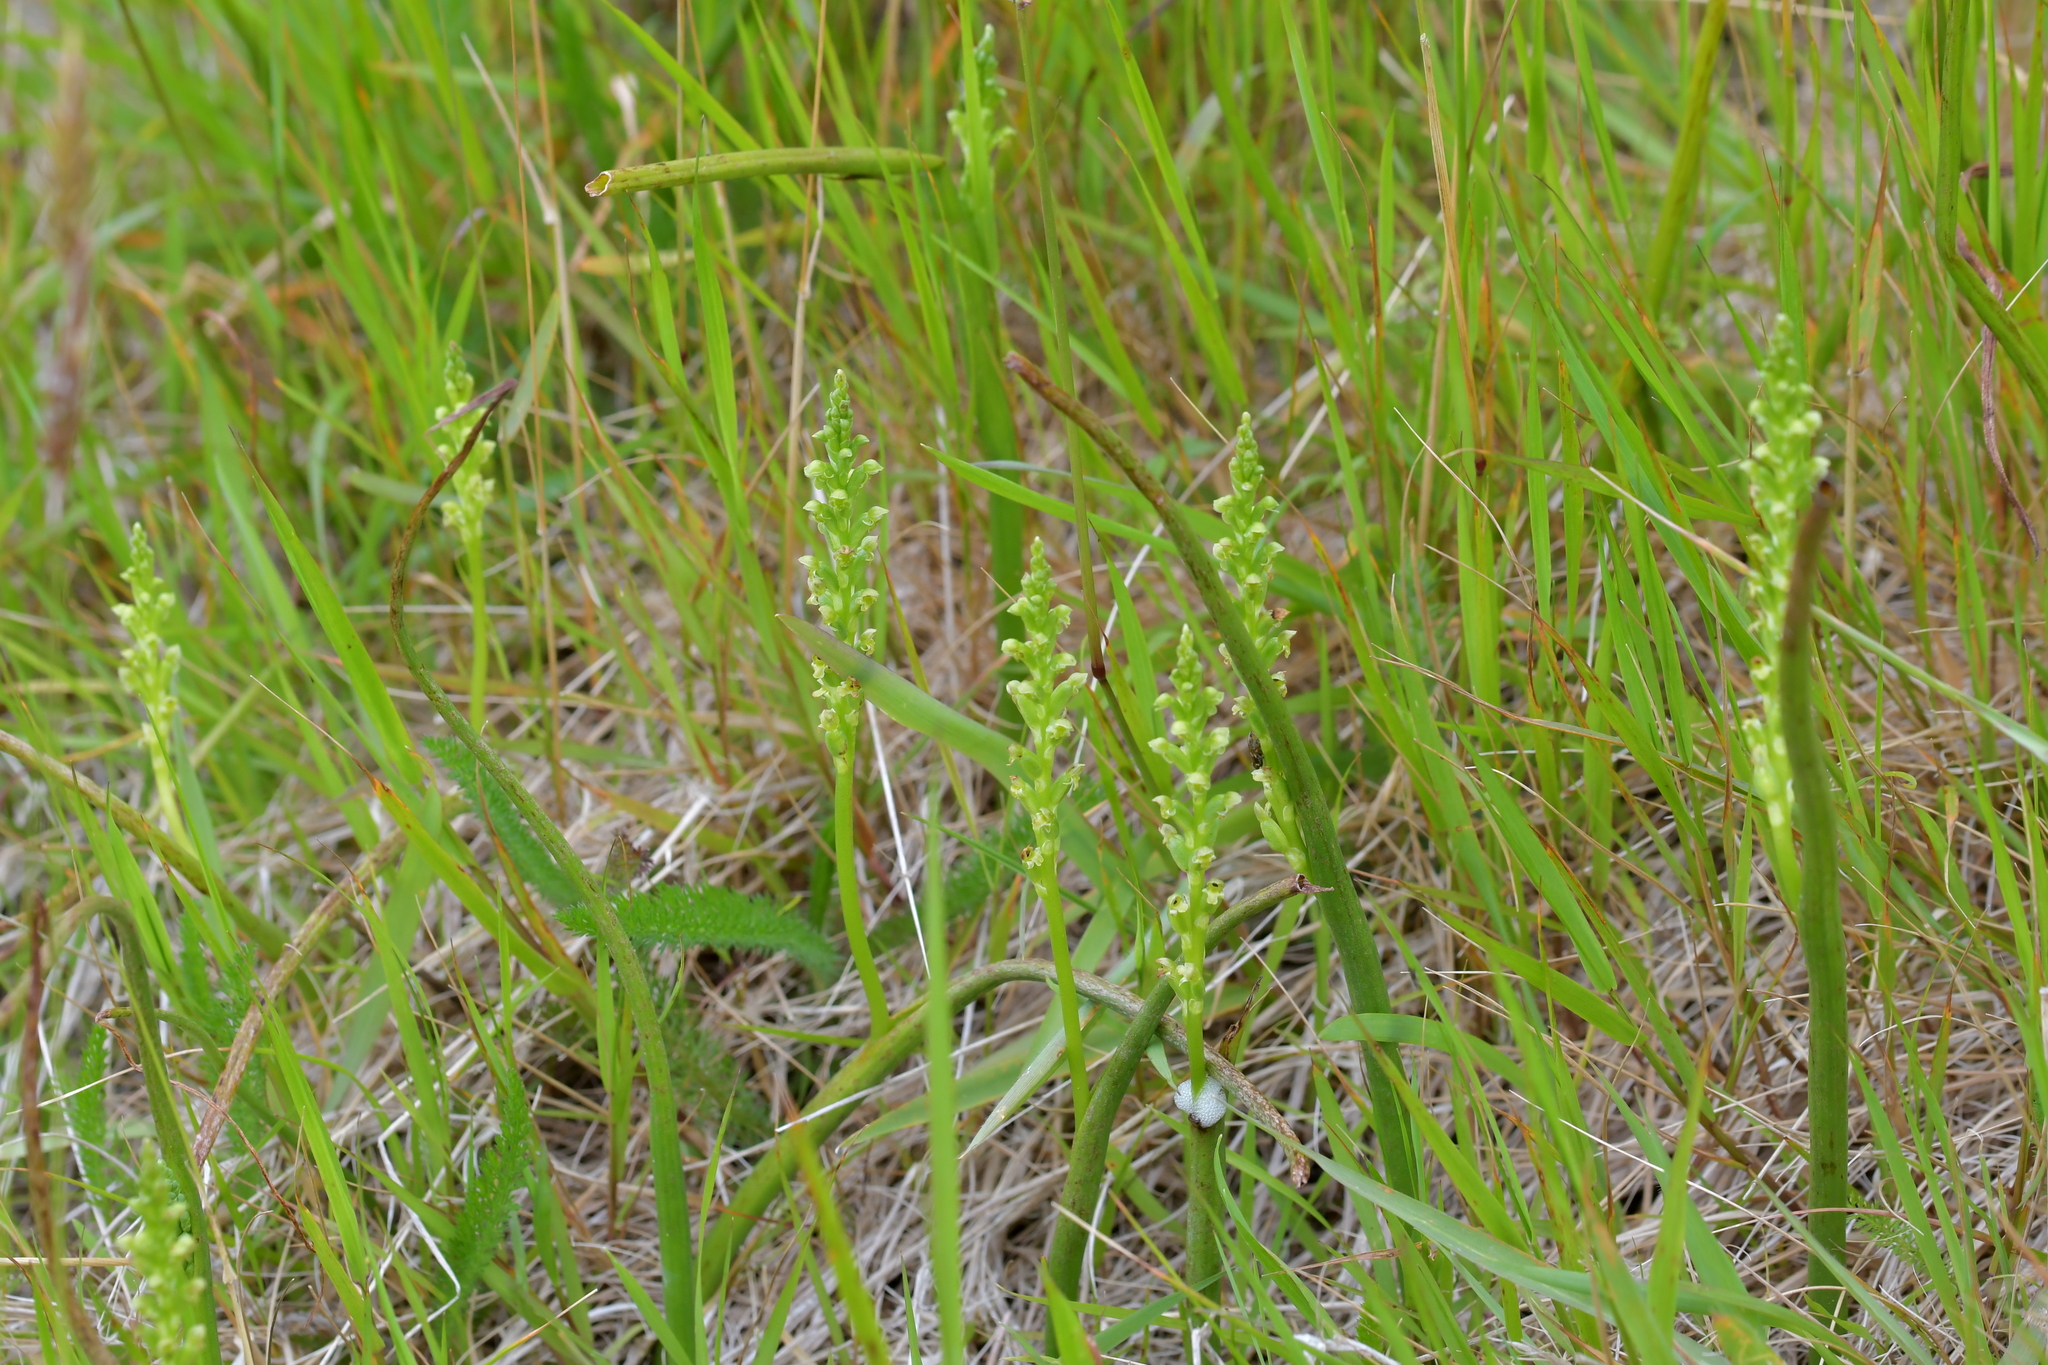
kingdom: Plantae
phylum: Tracheophyta
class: Liliopsida
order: Asparagales
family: Orchidaceae
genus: Microtis
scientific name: Microtis unifolia
